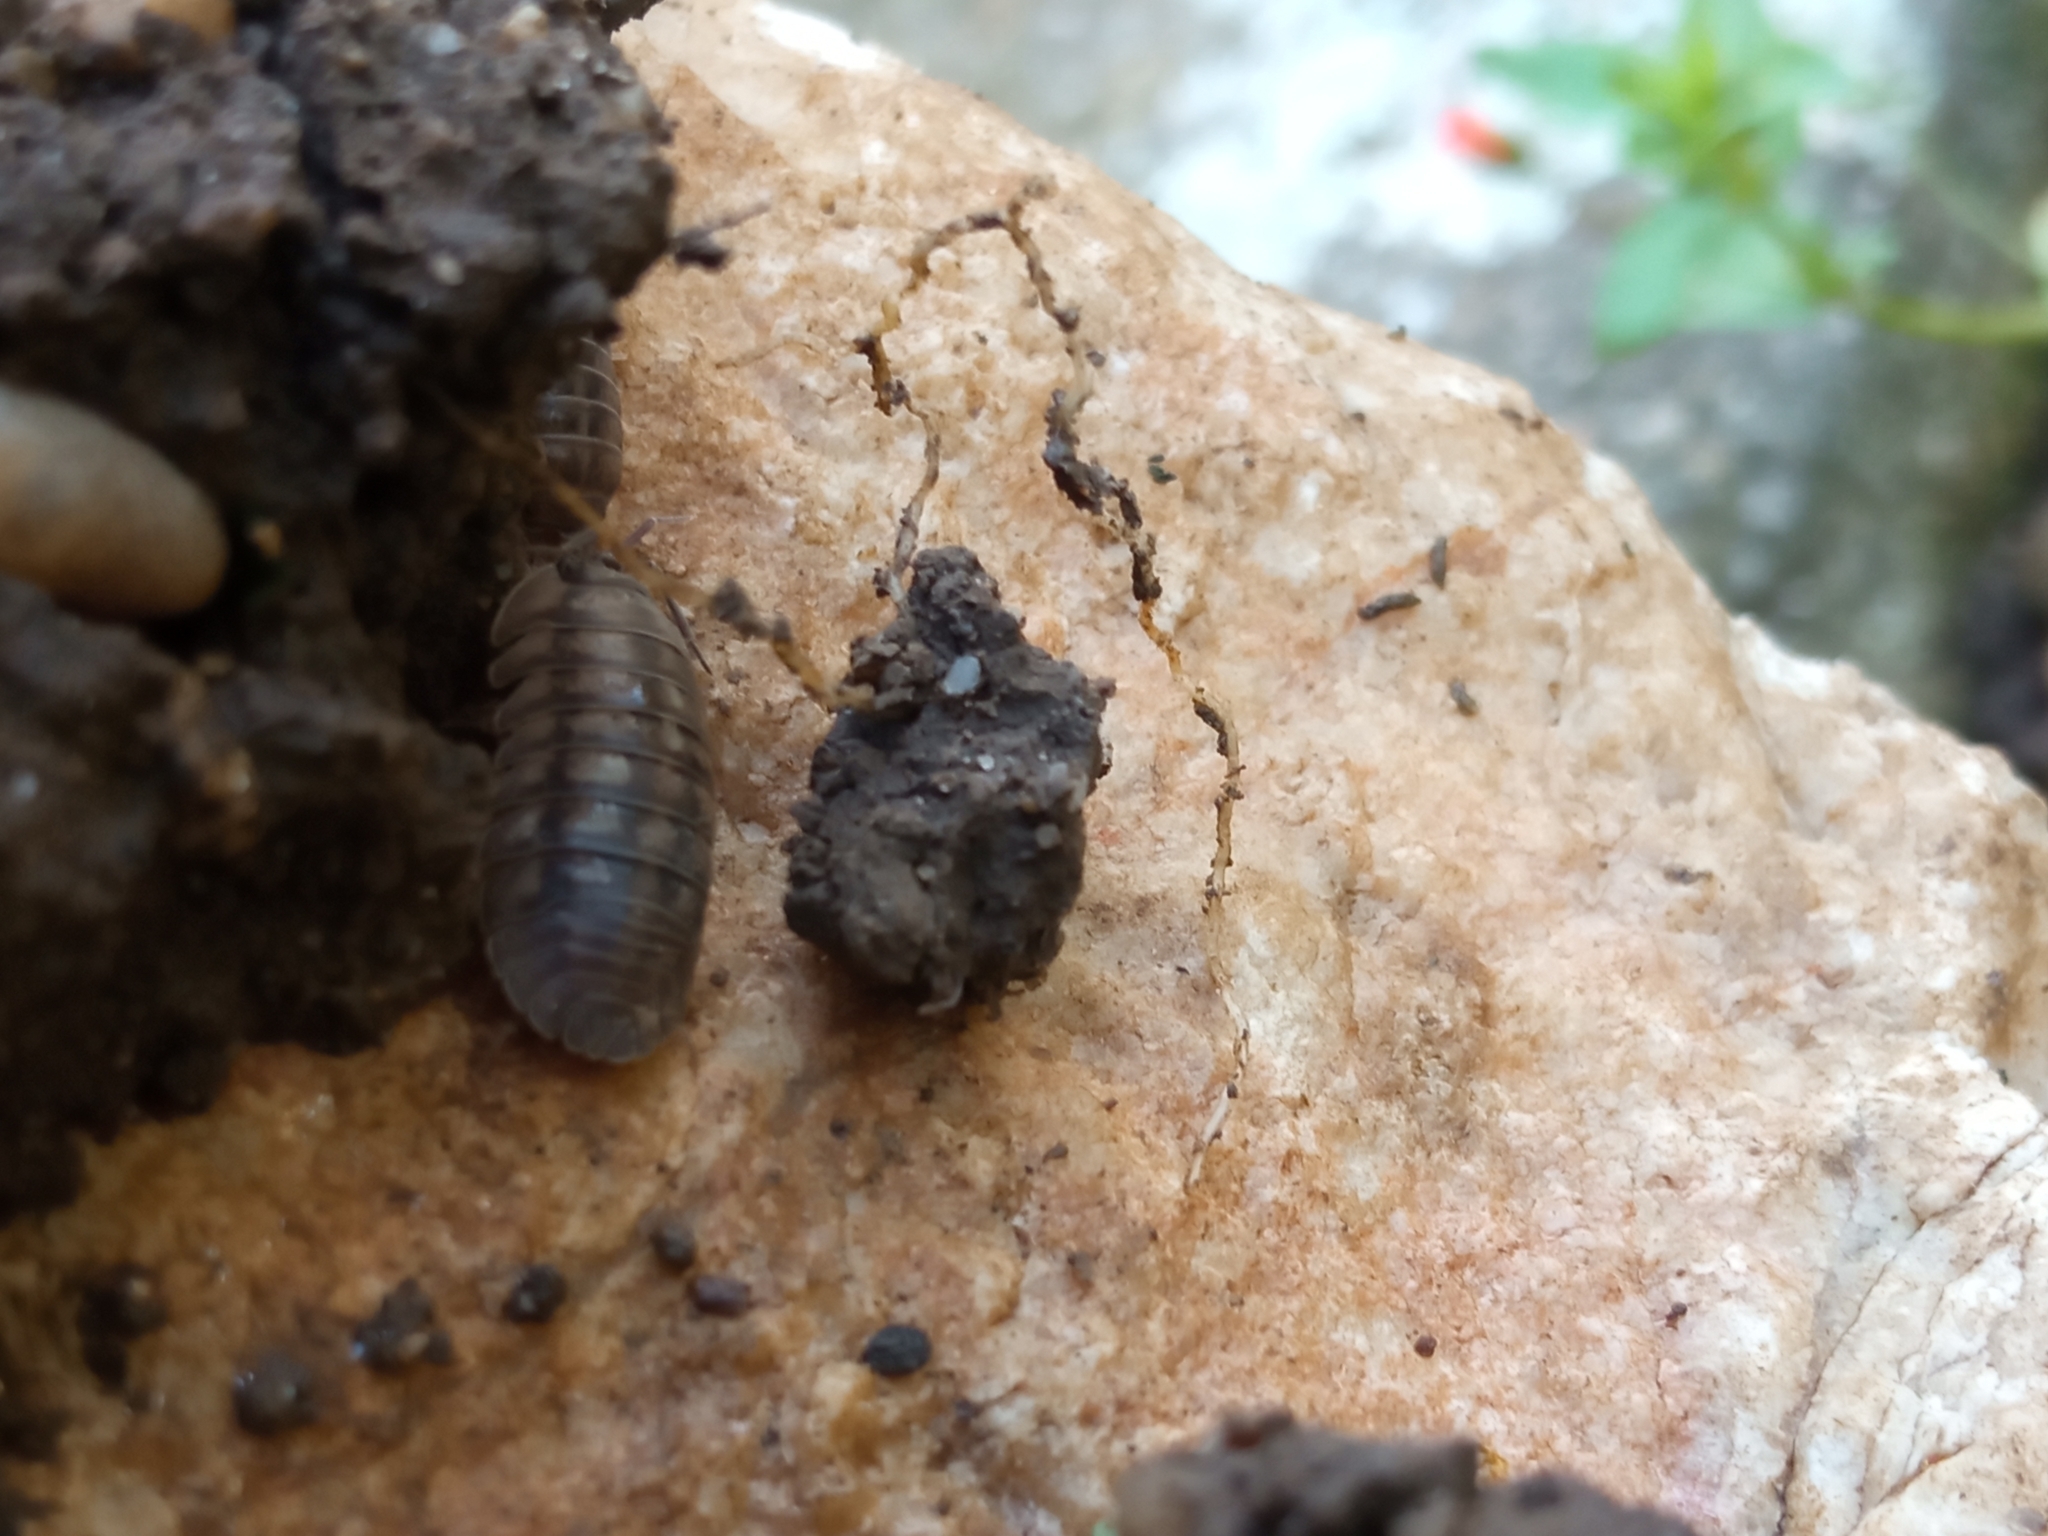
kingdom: Animalia
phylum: Arthropoda
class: Malacostraca
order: Isopoda
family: Armadillidiidae
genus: Armadillidium
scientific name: Armadillidium nasatum
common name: Isopod
